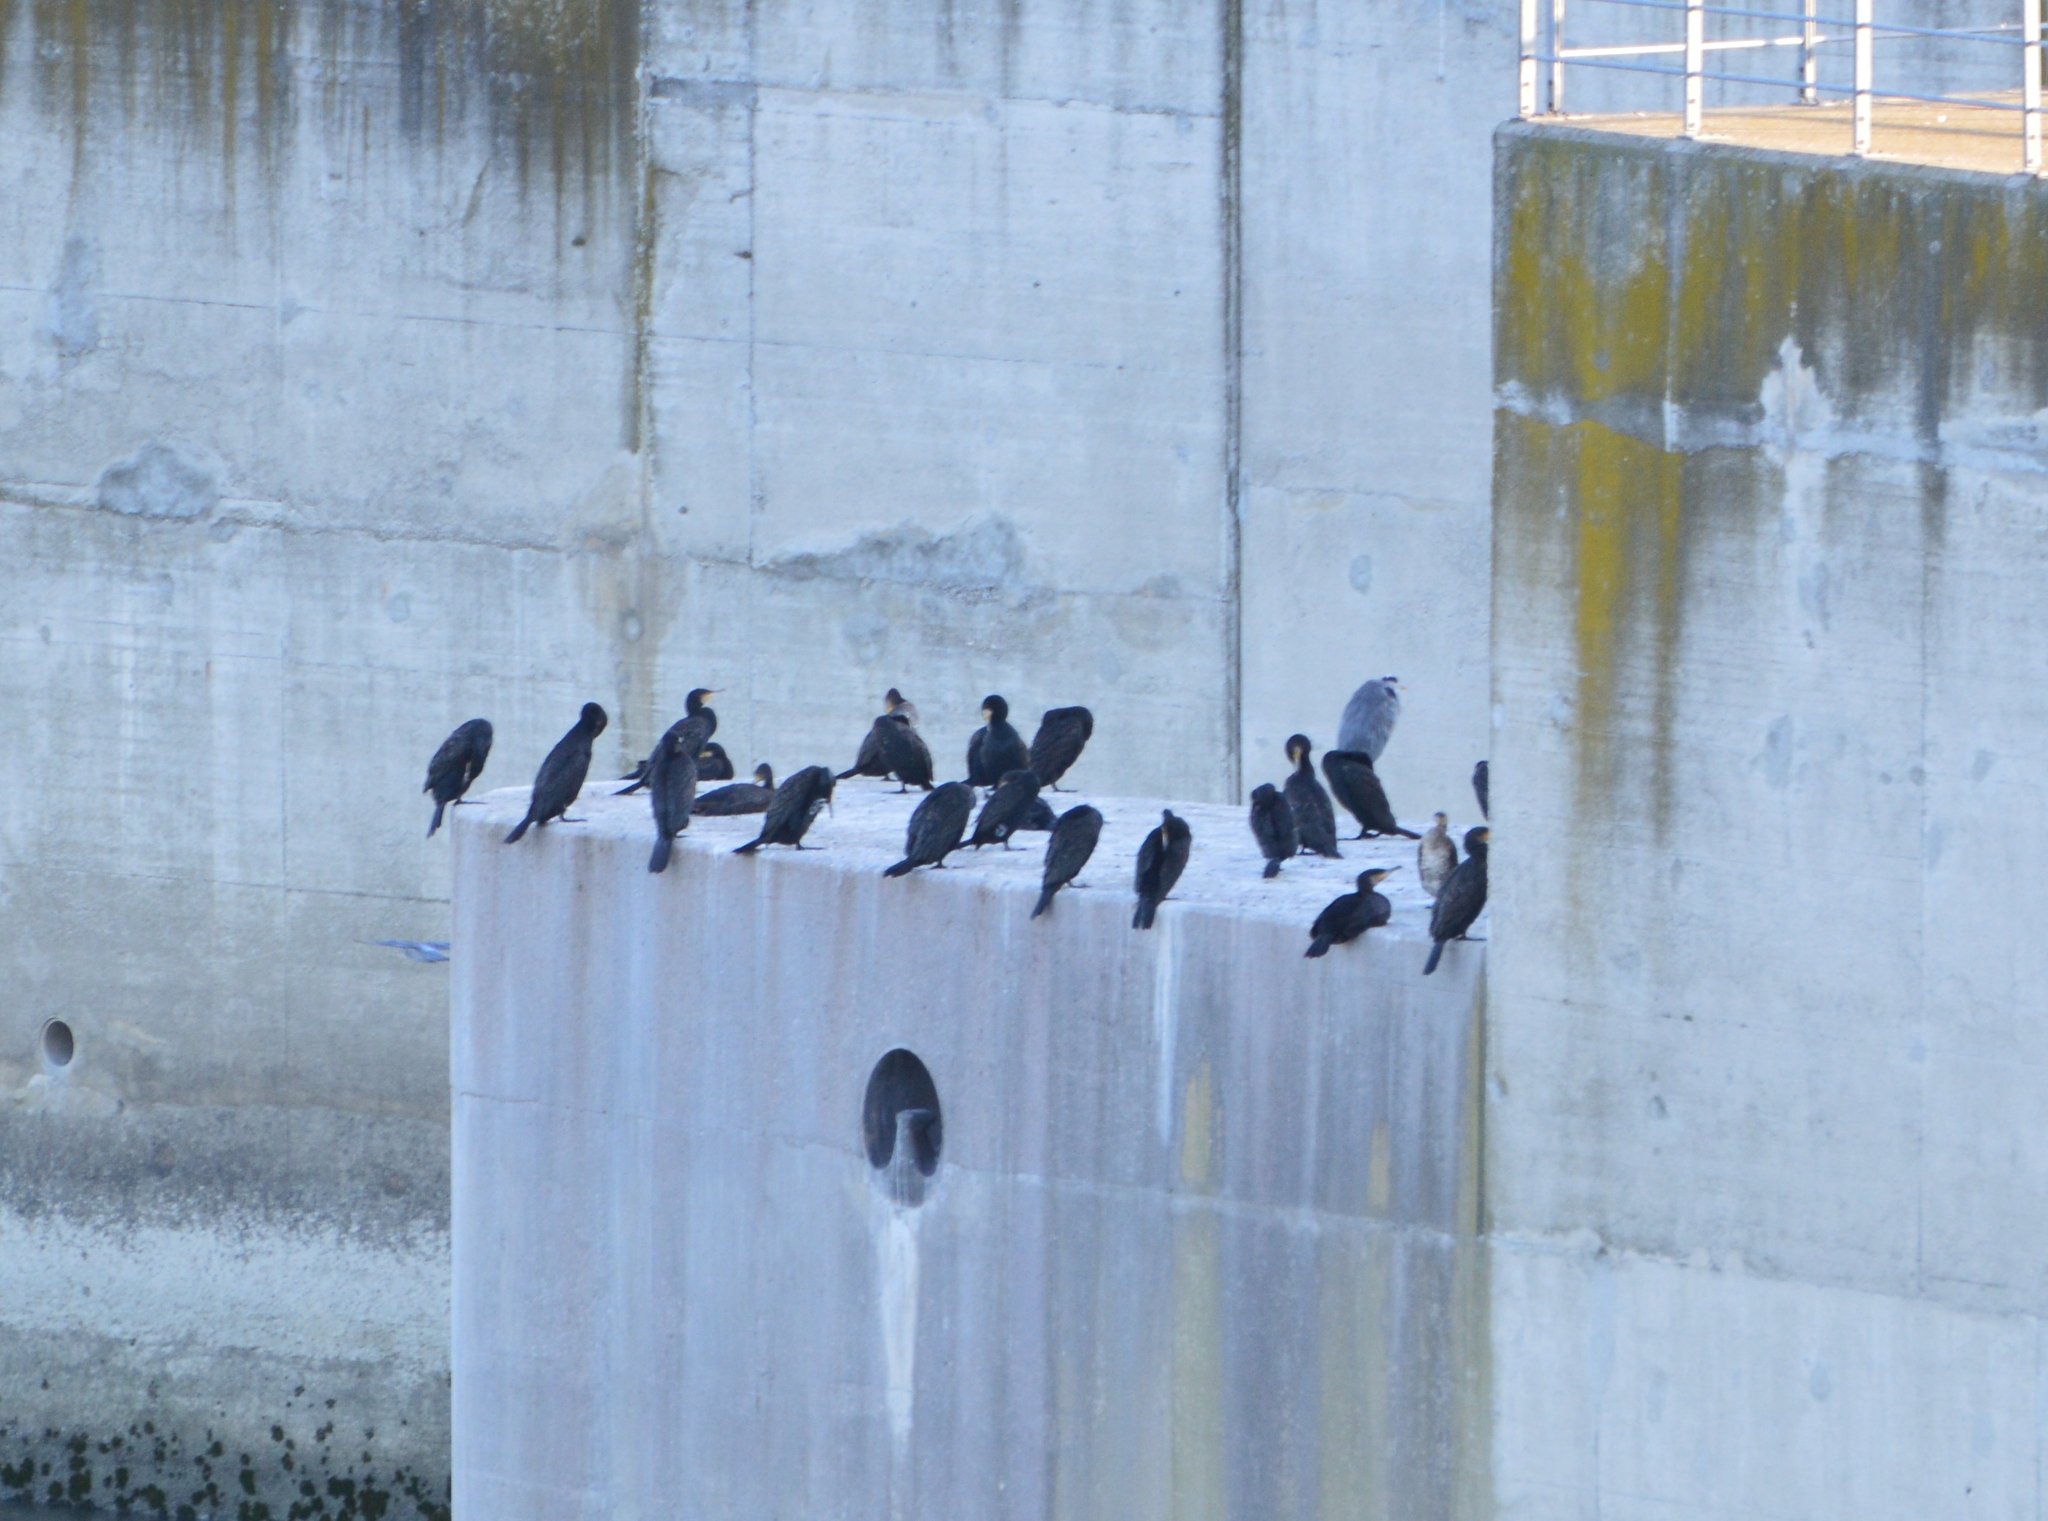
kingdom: Animalia
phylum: Chordata
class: Aves
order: Suliformes
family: Phalacrocoracidae
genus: Phalacrocorax
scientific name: Phalacrocorax carbo
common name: Great cormorant
